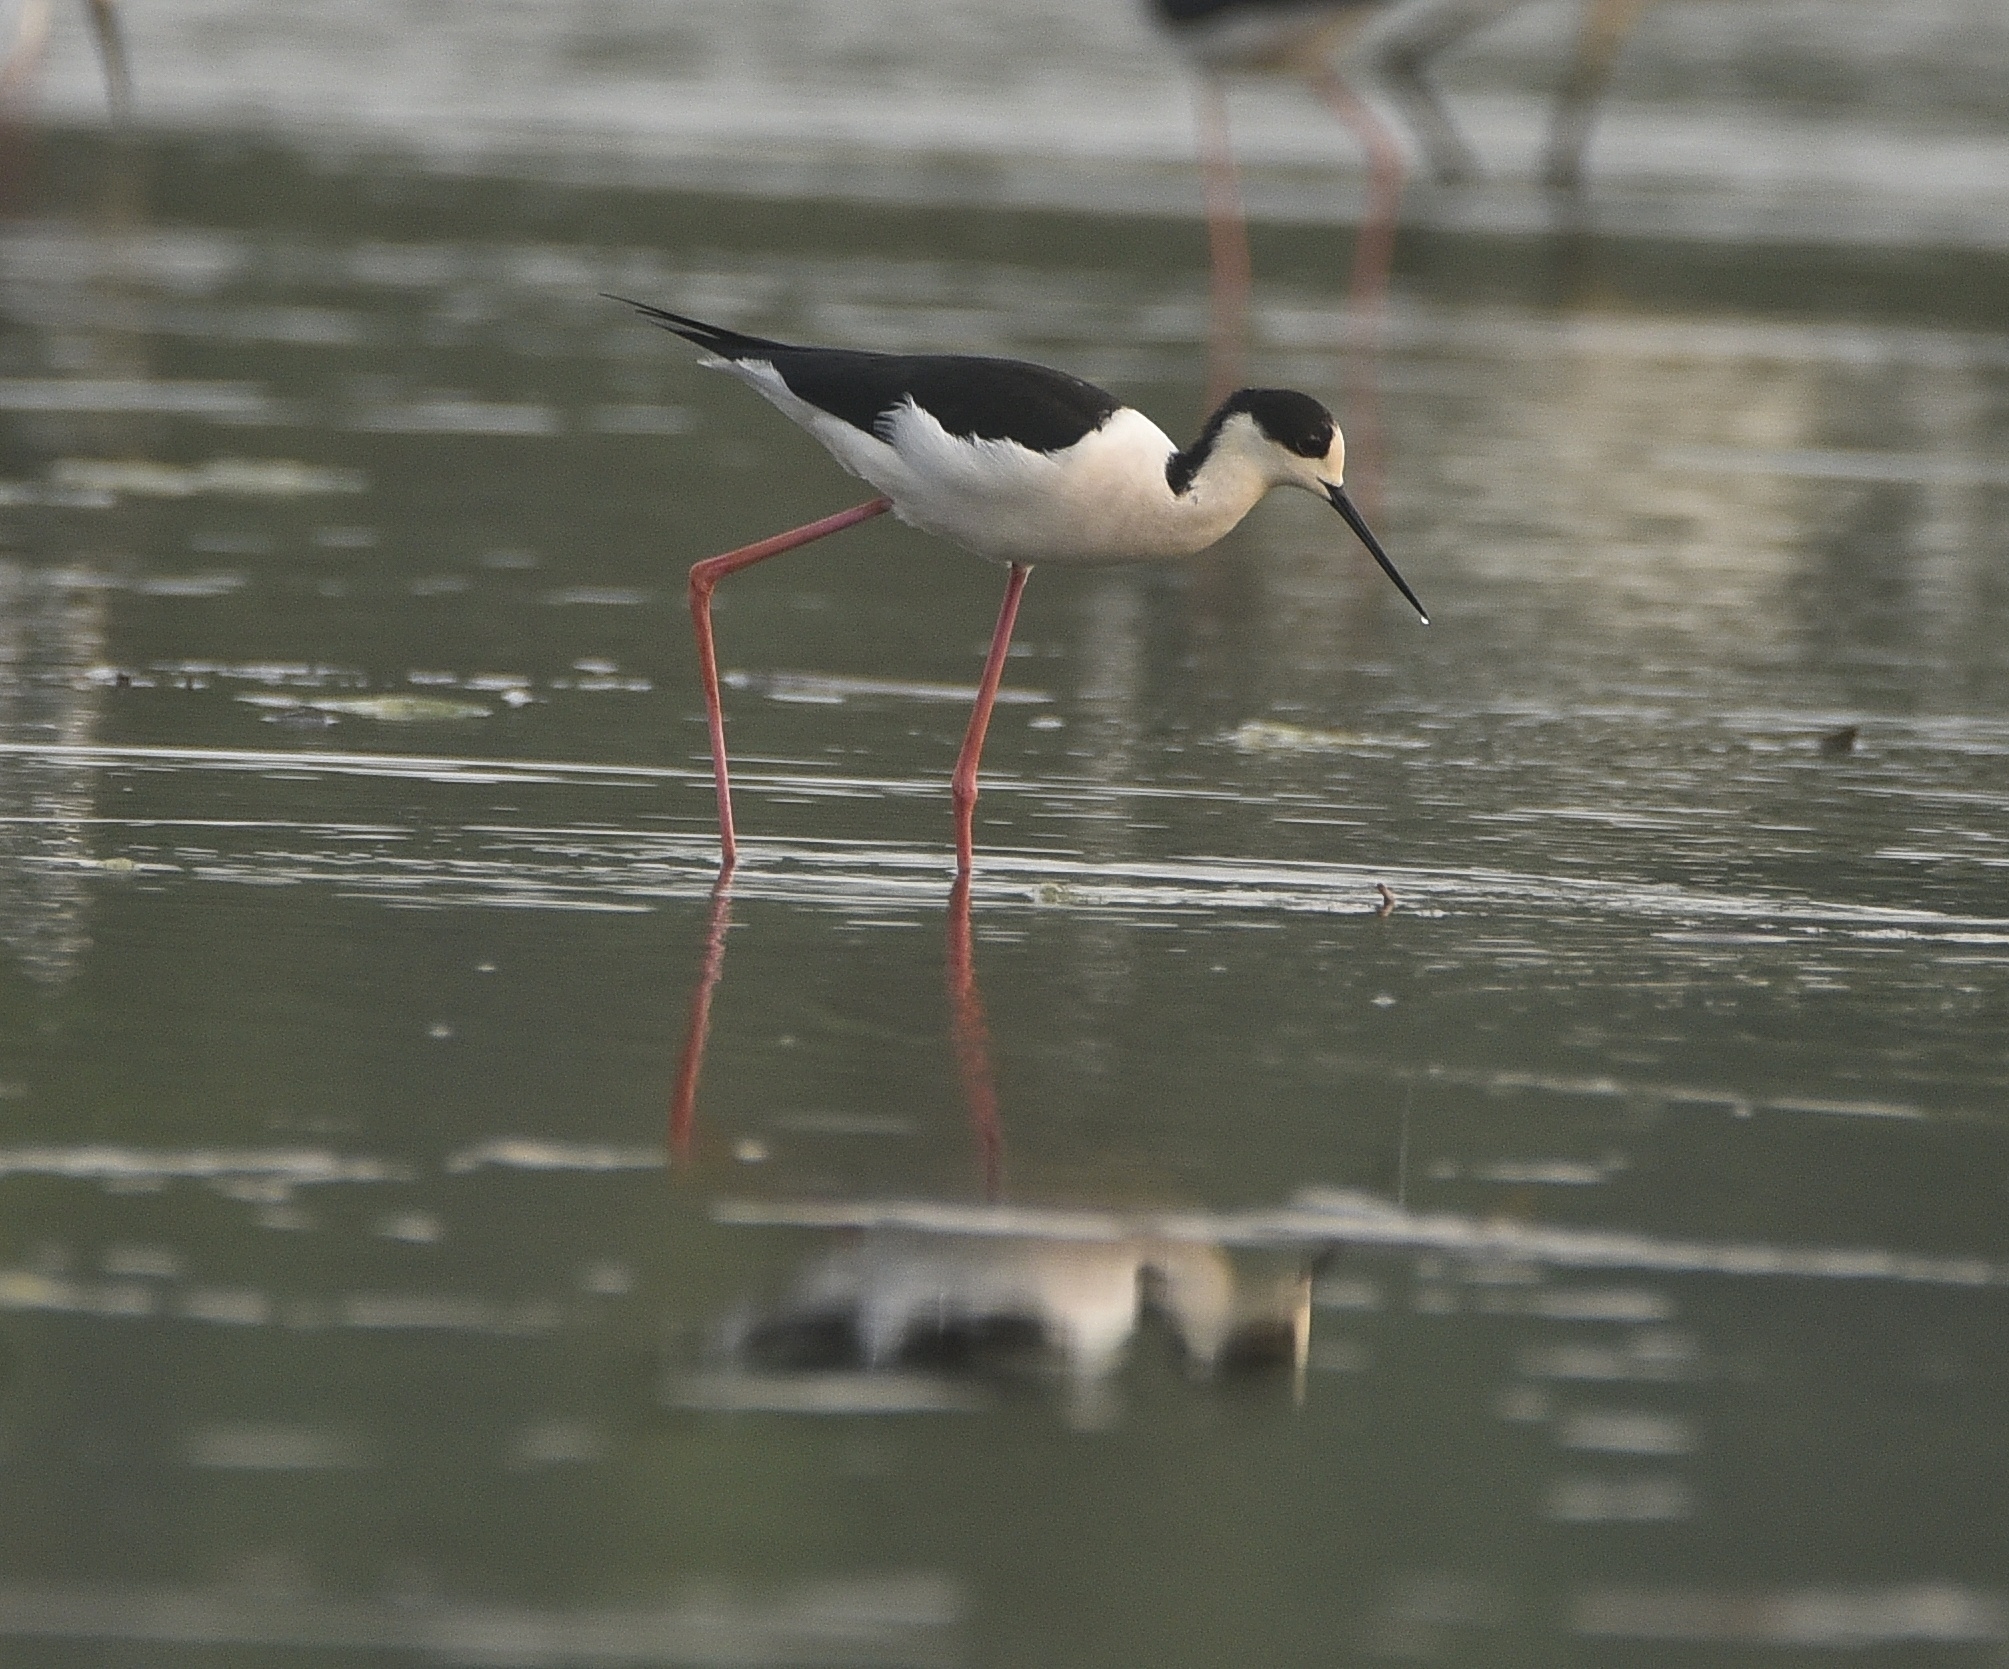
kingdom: Animalia
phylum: Chordata
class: Aves
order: Charadriiformes
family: Recurvirostridae
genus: Himantopus
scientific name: Himantopus himantopus
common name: Black-winged stilt
